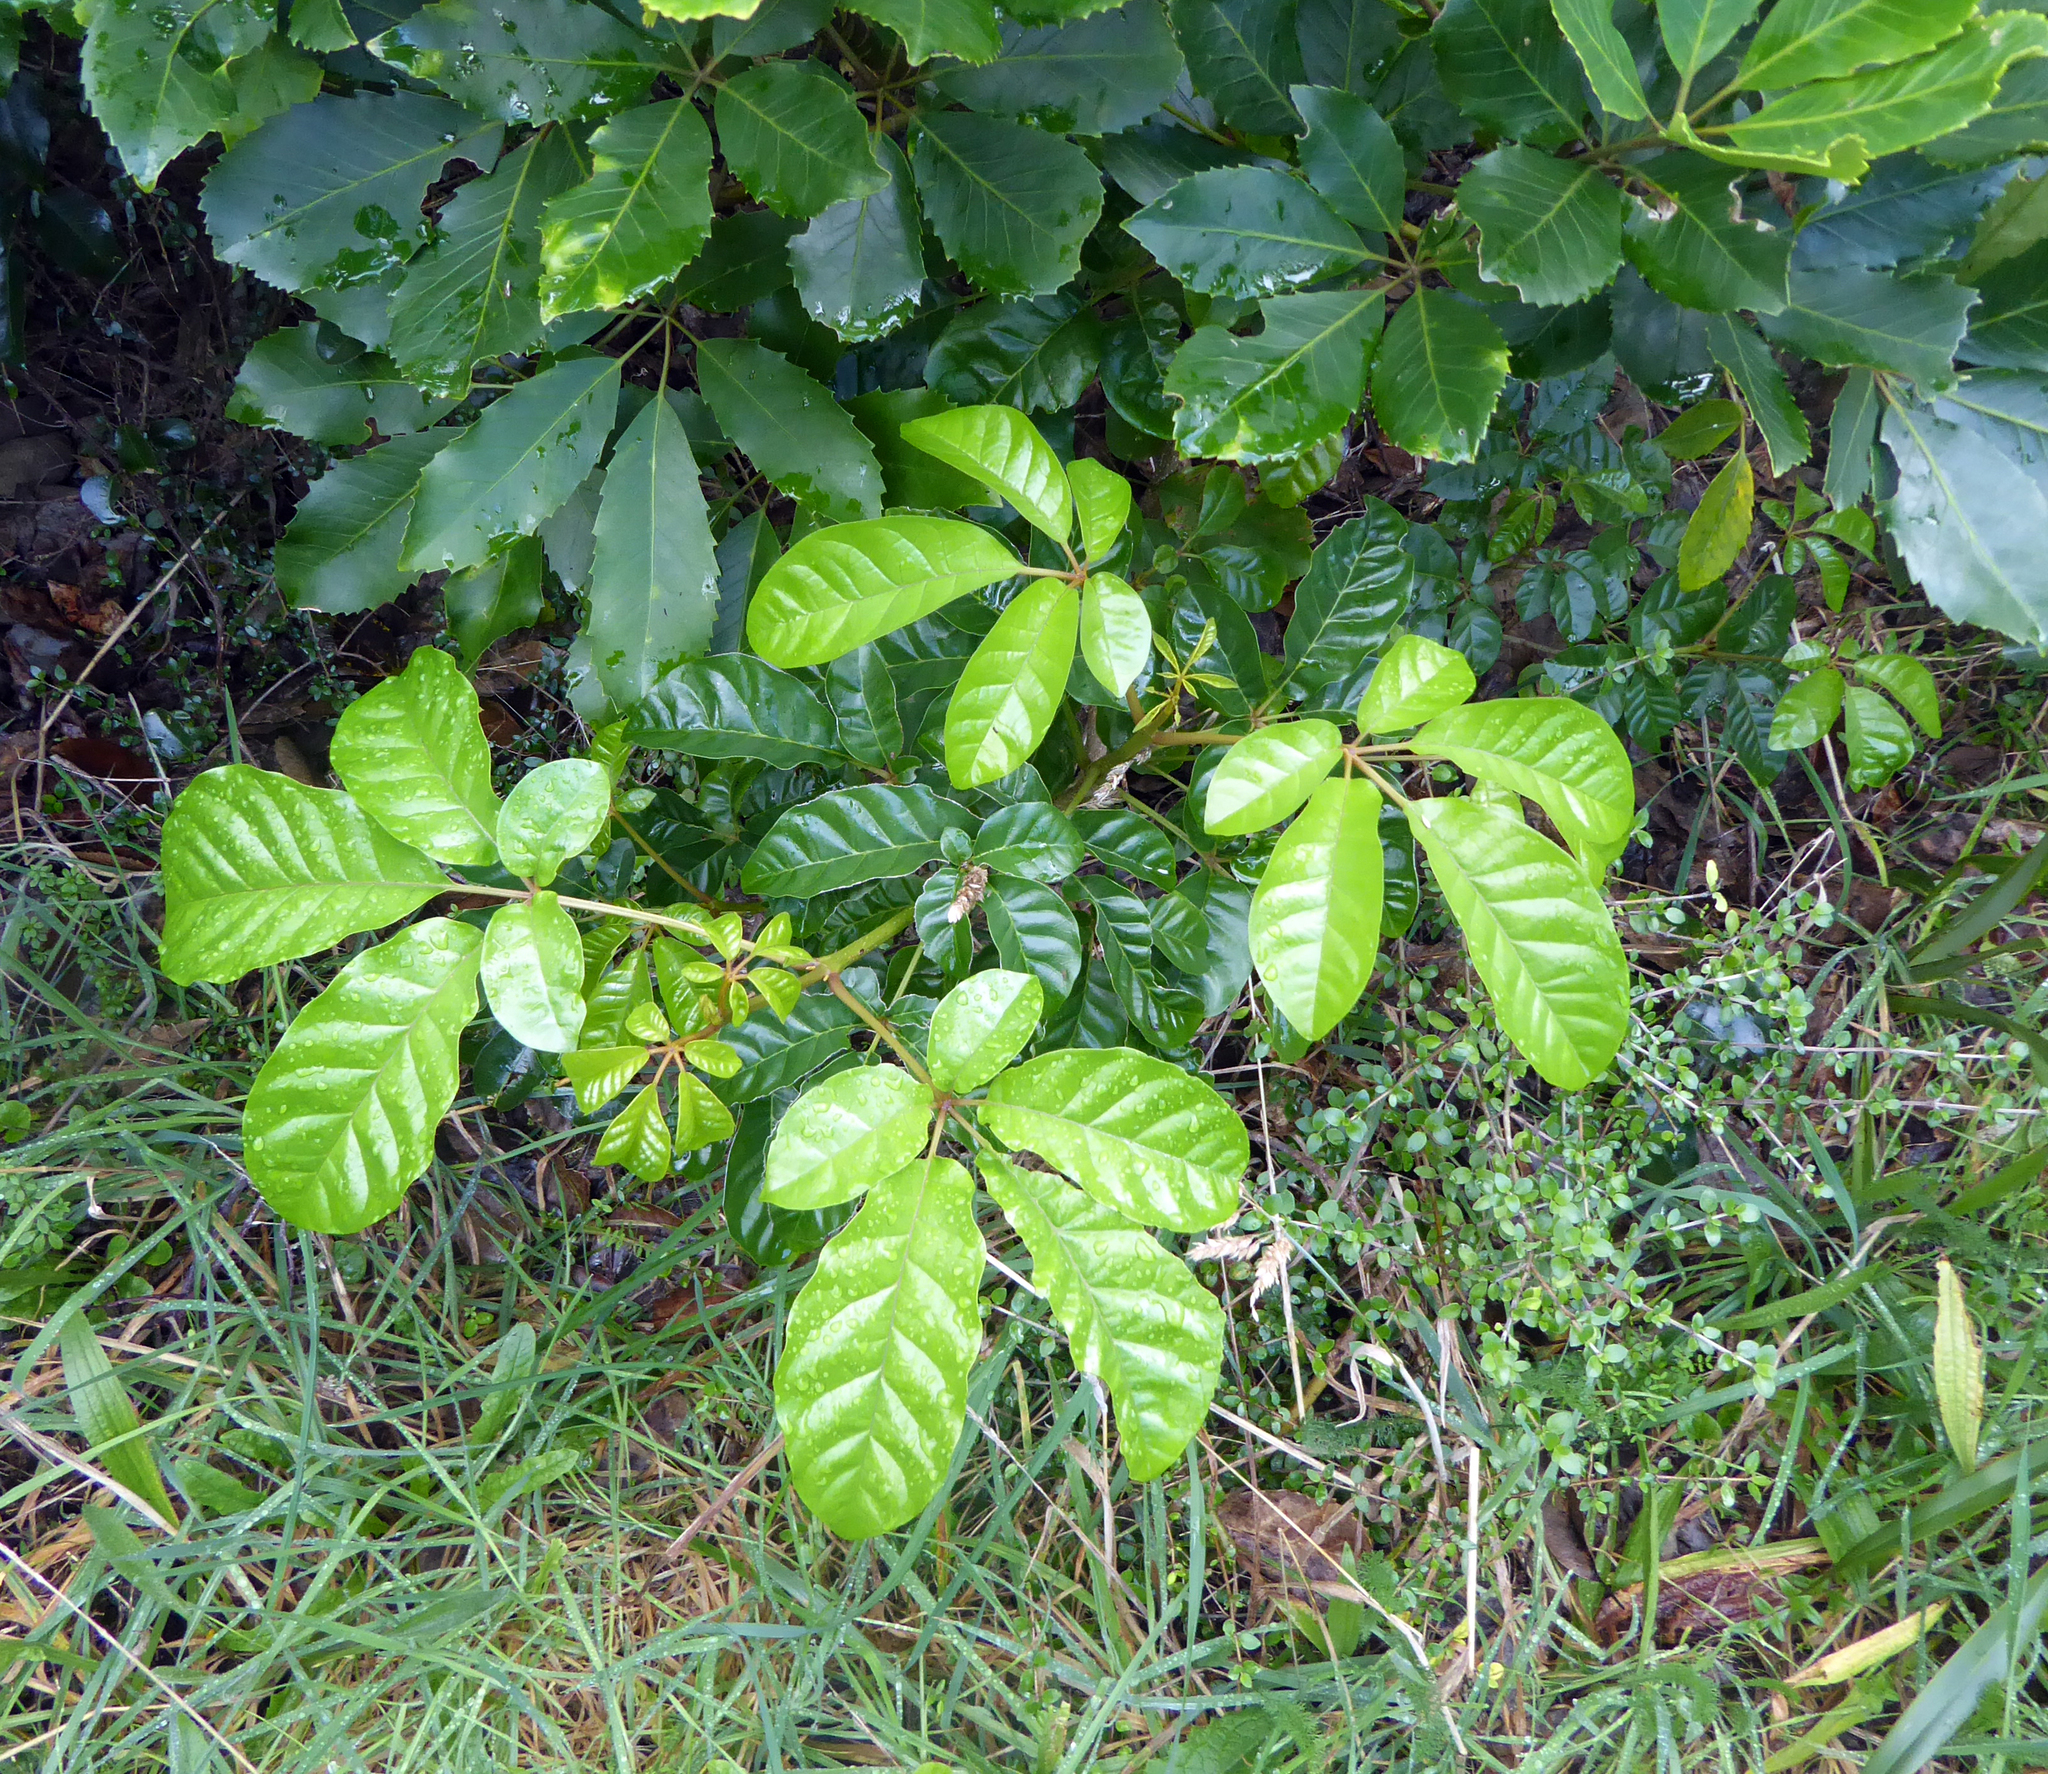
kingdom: Plantae
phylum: Tracheophyta
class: Magnoliopsida
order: Lamiales
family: Lamiaceae
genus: Vitex
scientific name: Vitex lucens
